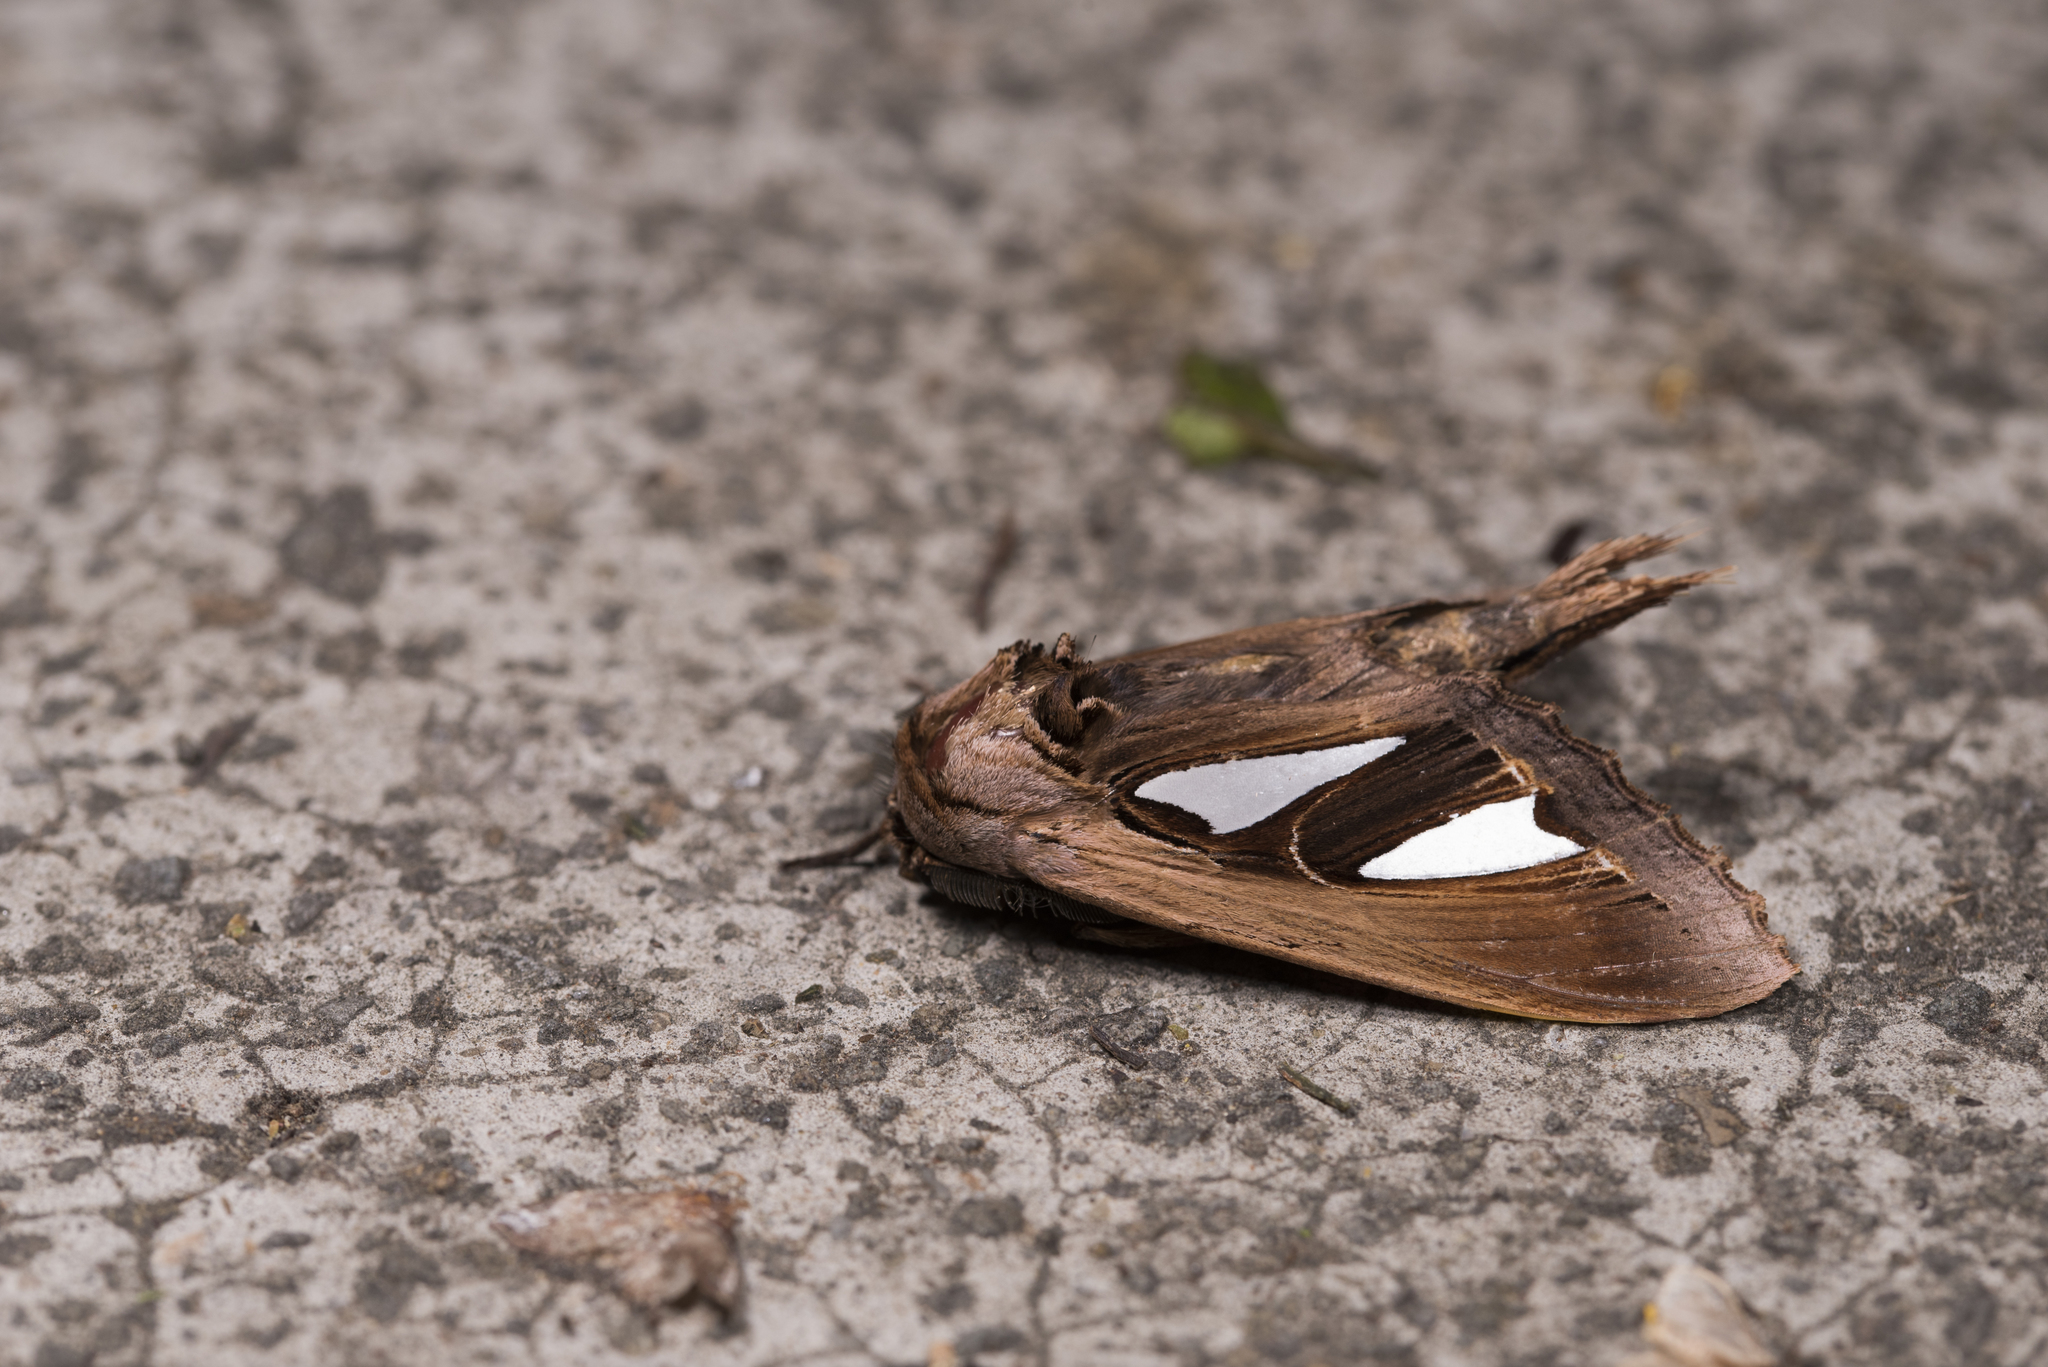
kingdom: Animalia
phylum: Arthropoda
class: Insecta
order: Lepidoptera
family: Notodontidae
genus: Tarsolepis
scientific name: Tarsolepis japonica
